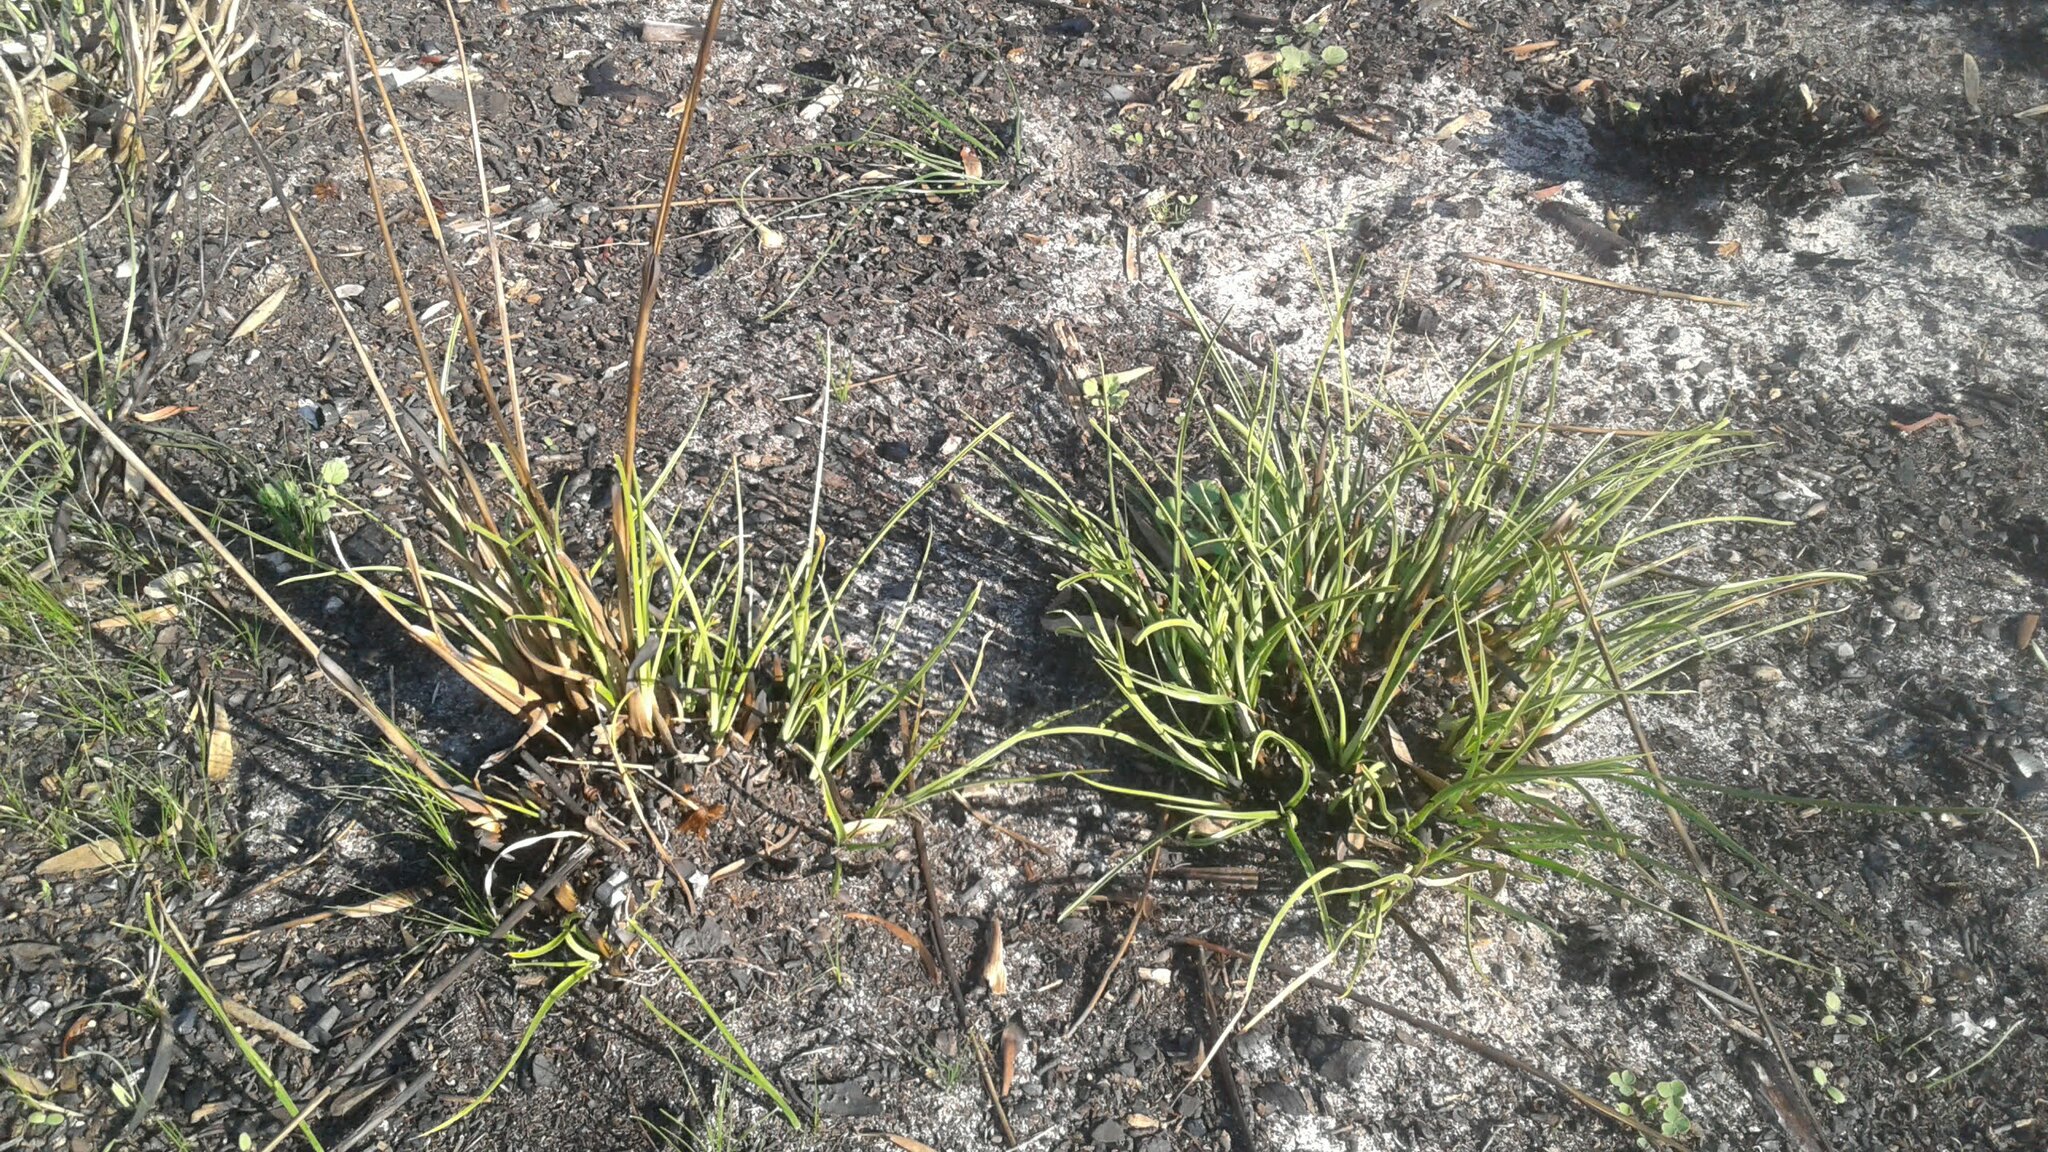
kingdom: Plantae
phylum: Tracheophyta
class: Liliopsida
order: Poales
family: Cyperaceae
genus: Tetraria
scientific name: Tetraria eximia
